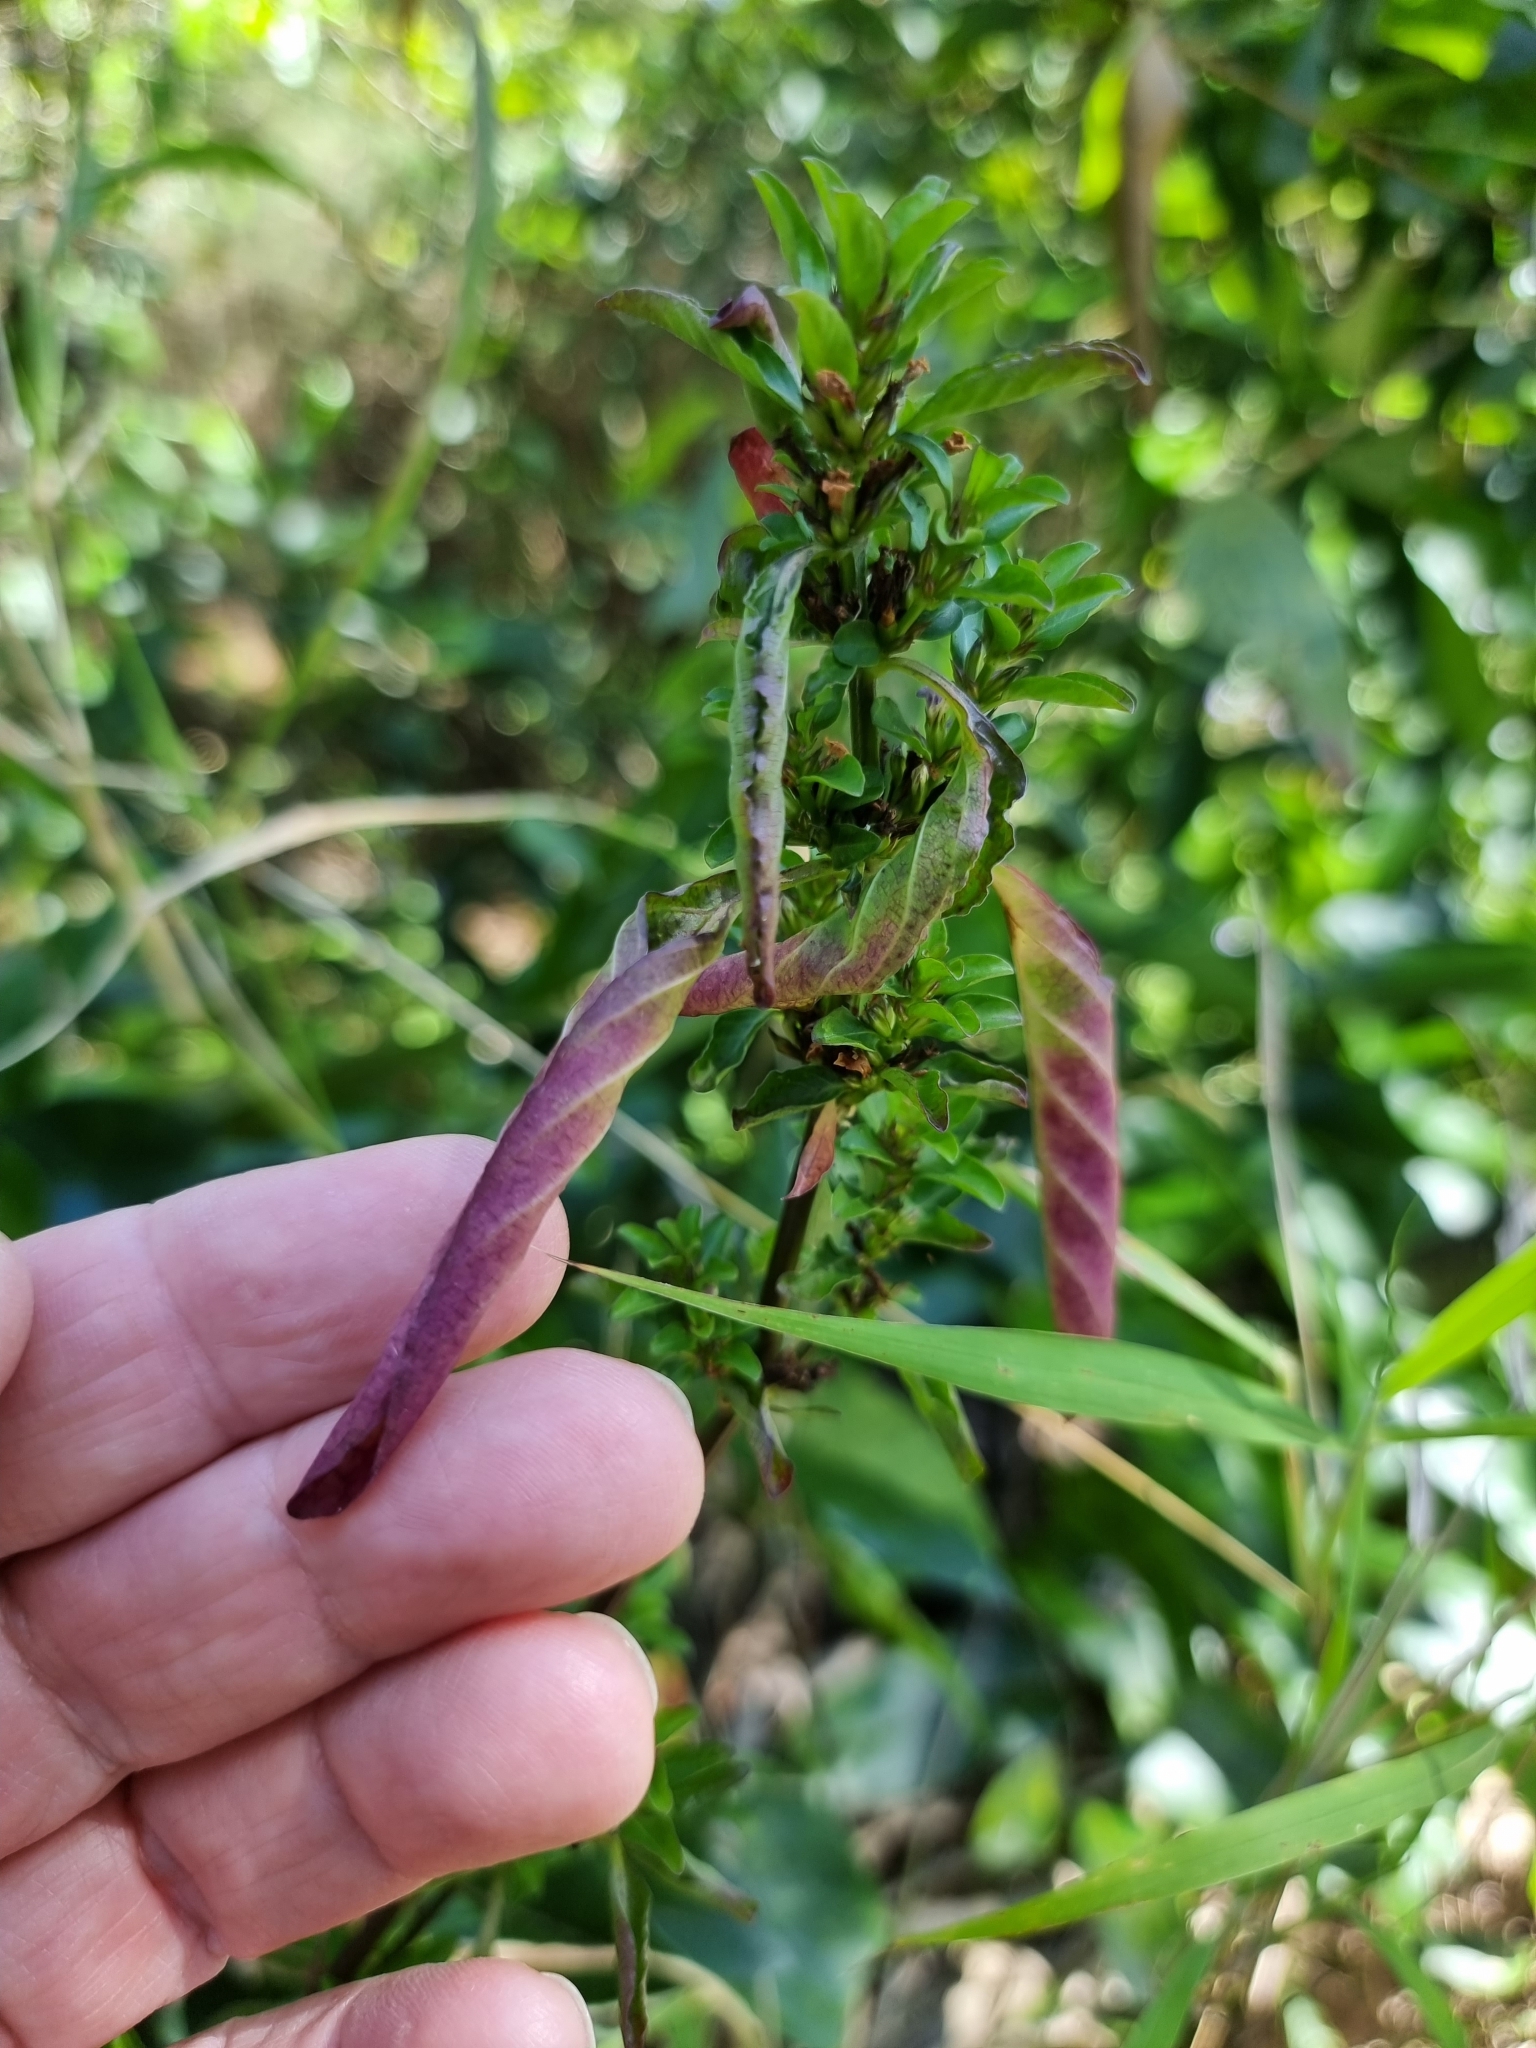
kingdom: Plantae
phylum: Tracheophyta
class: Magnoliopsida
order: Lamiales
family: Acanthaceae
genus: Hygrophila
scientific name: Hygrophila erecta
